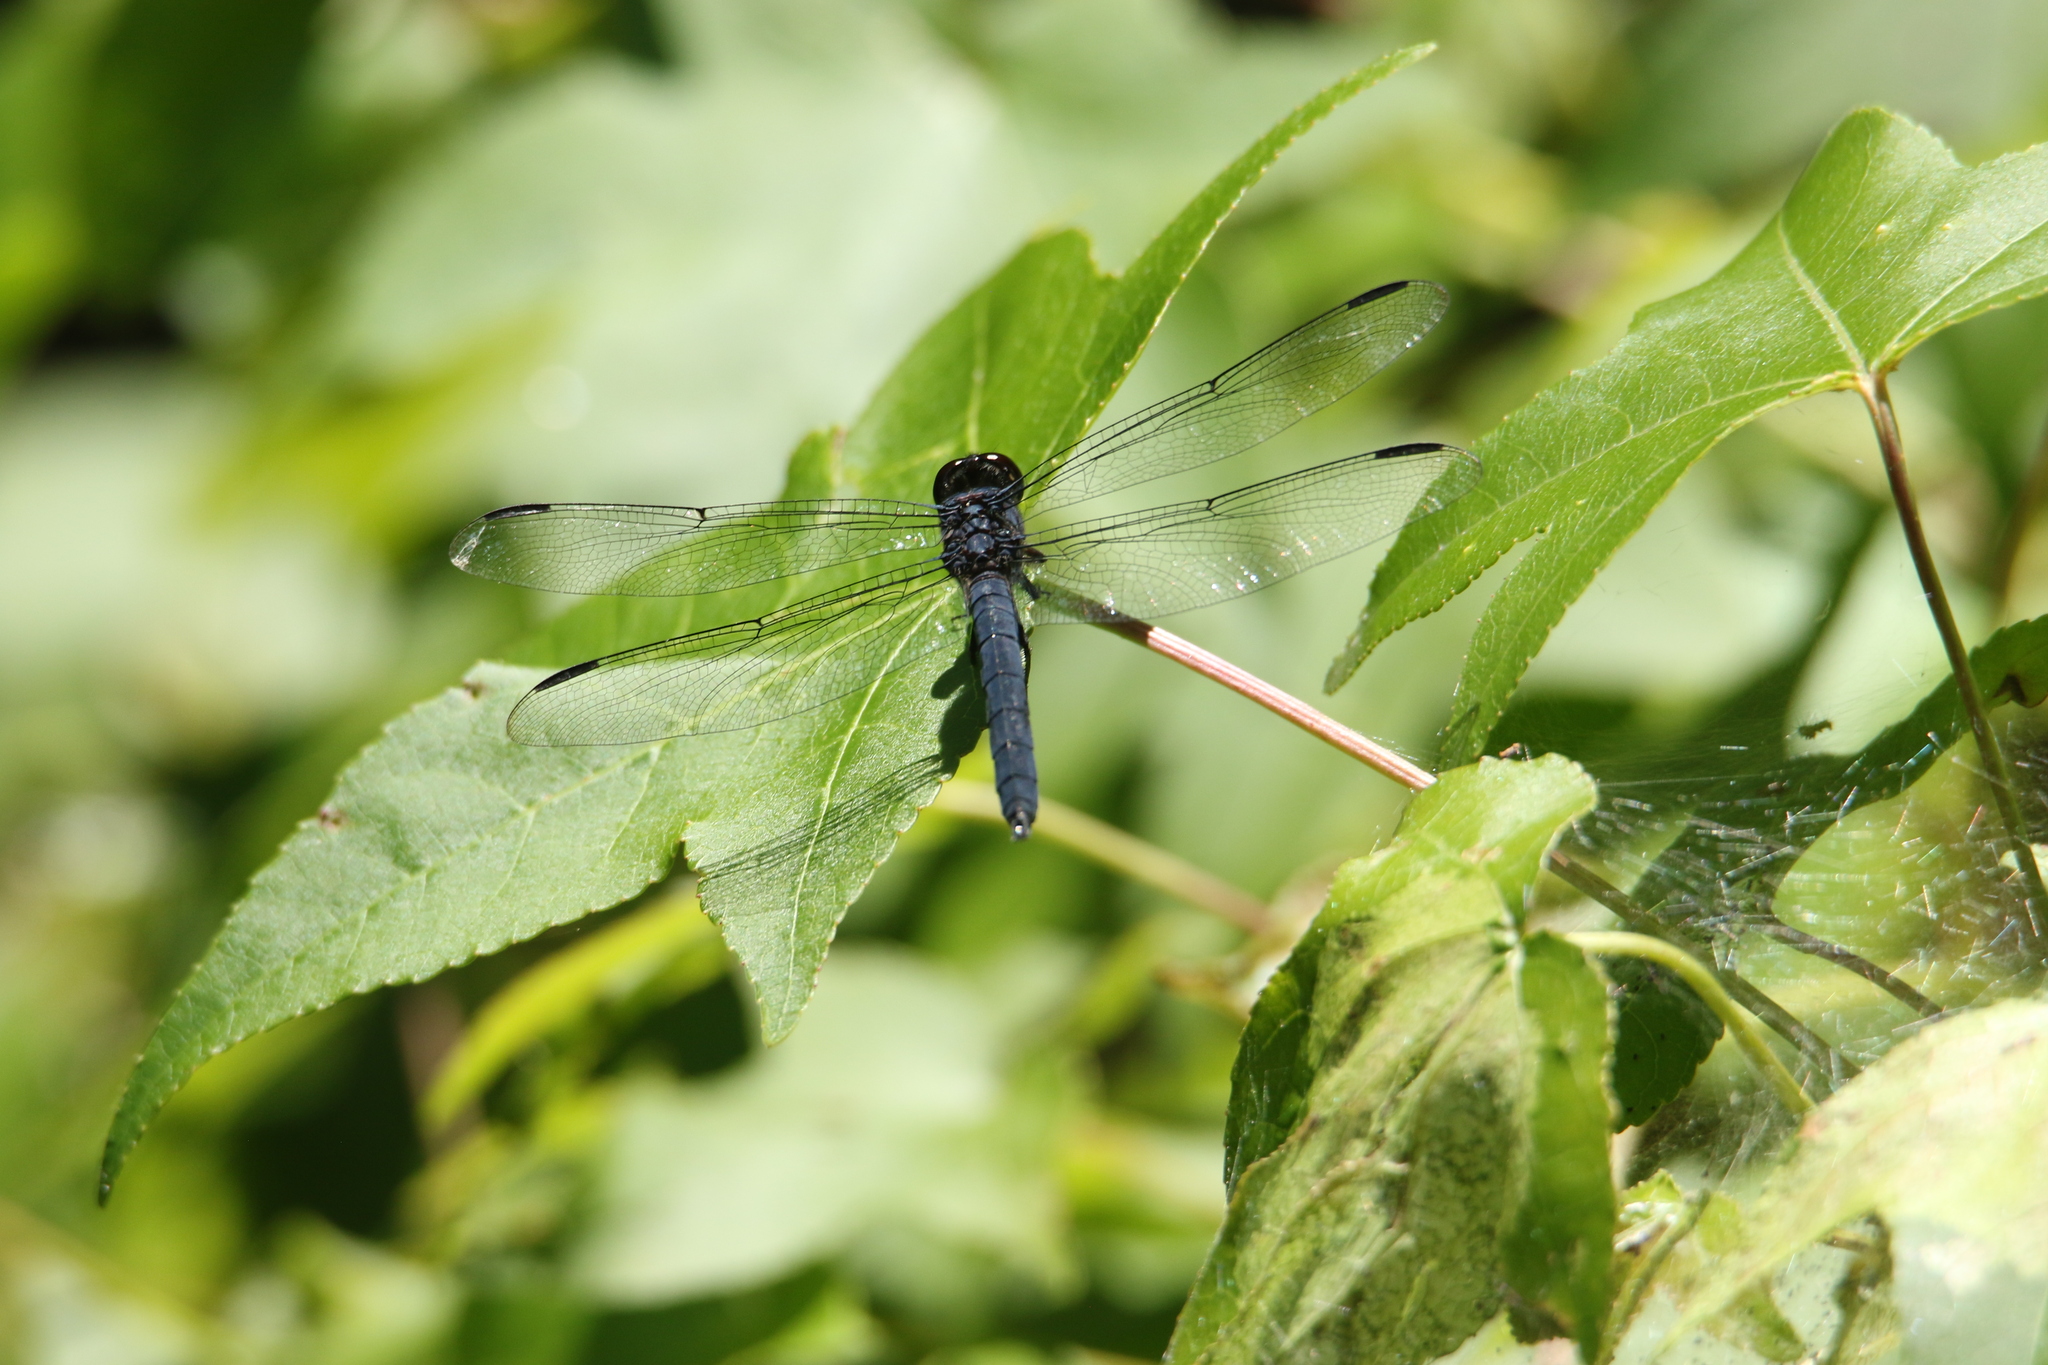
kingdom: Animalia
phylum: Arthropoda
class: Insecta
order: Odonata
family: Libellulidae
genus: Libellula
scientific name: Libellula incesta
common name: Slaty skimmer
